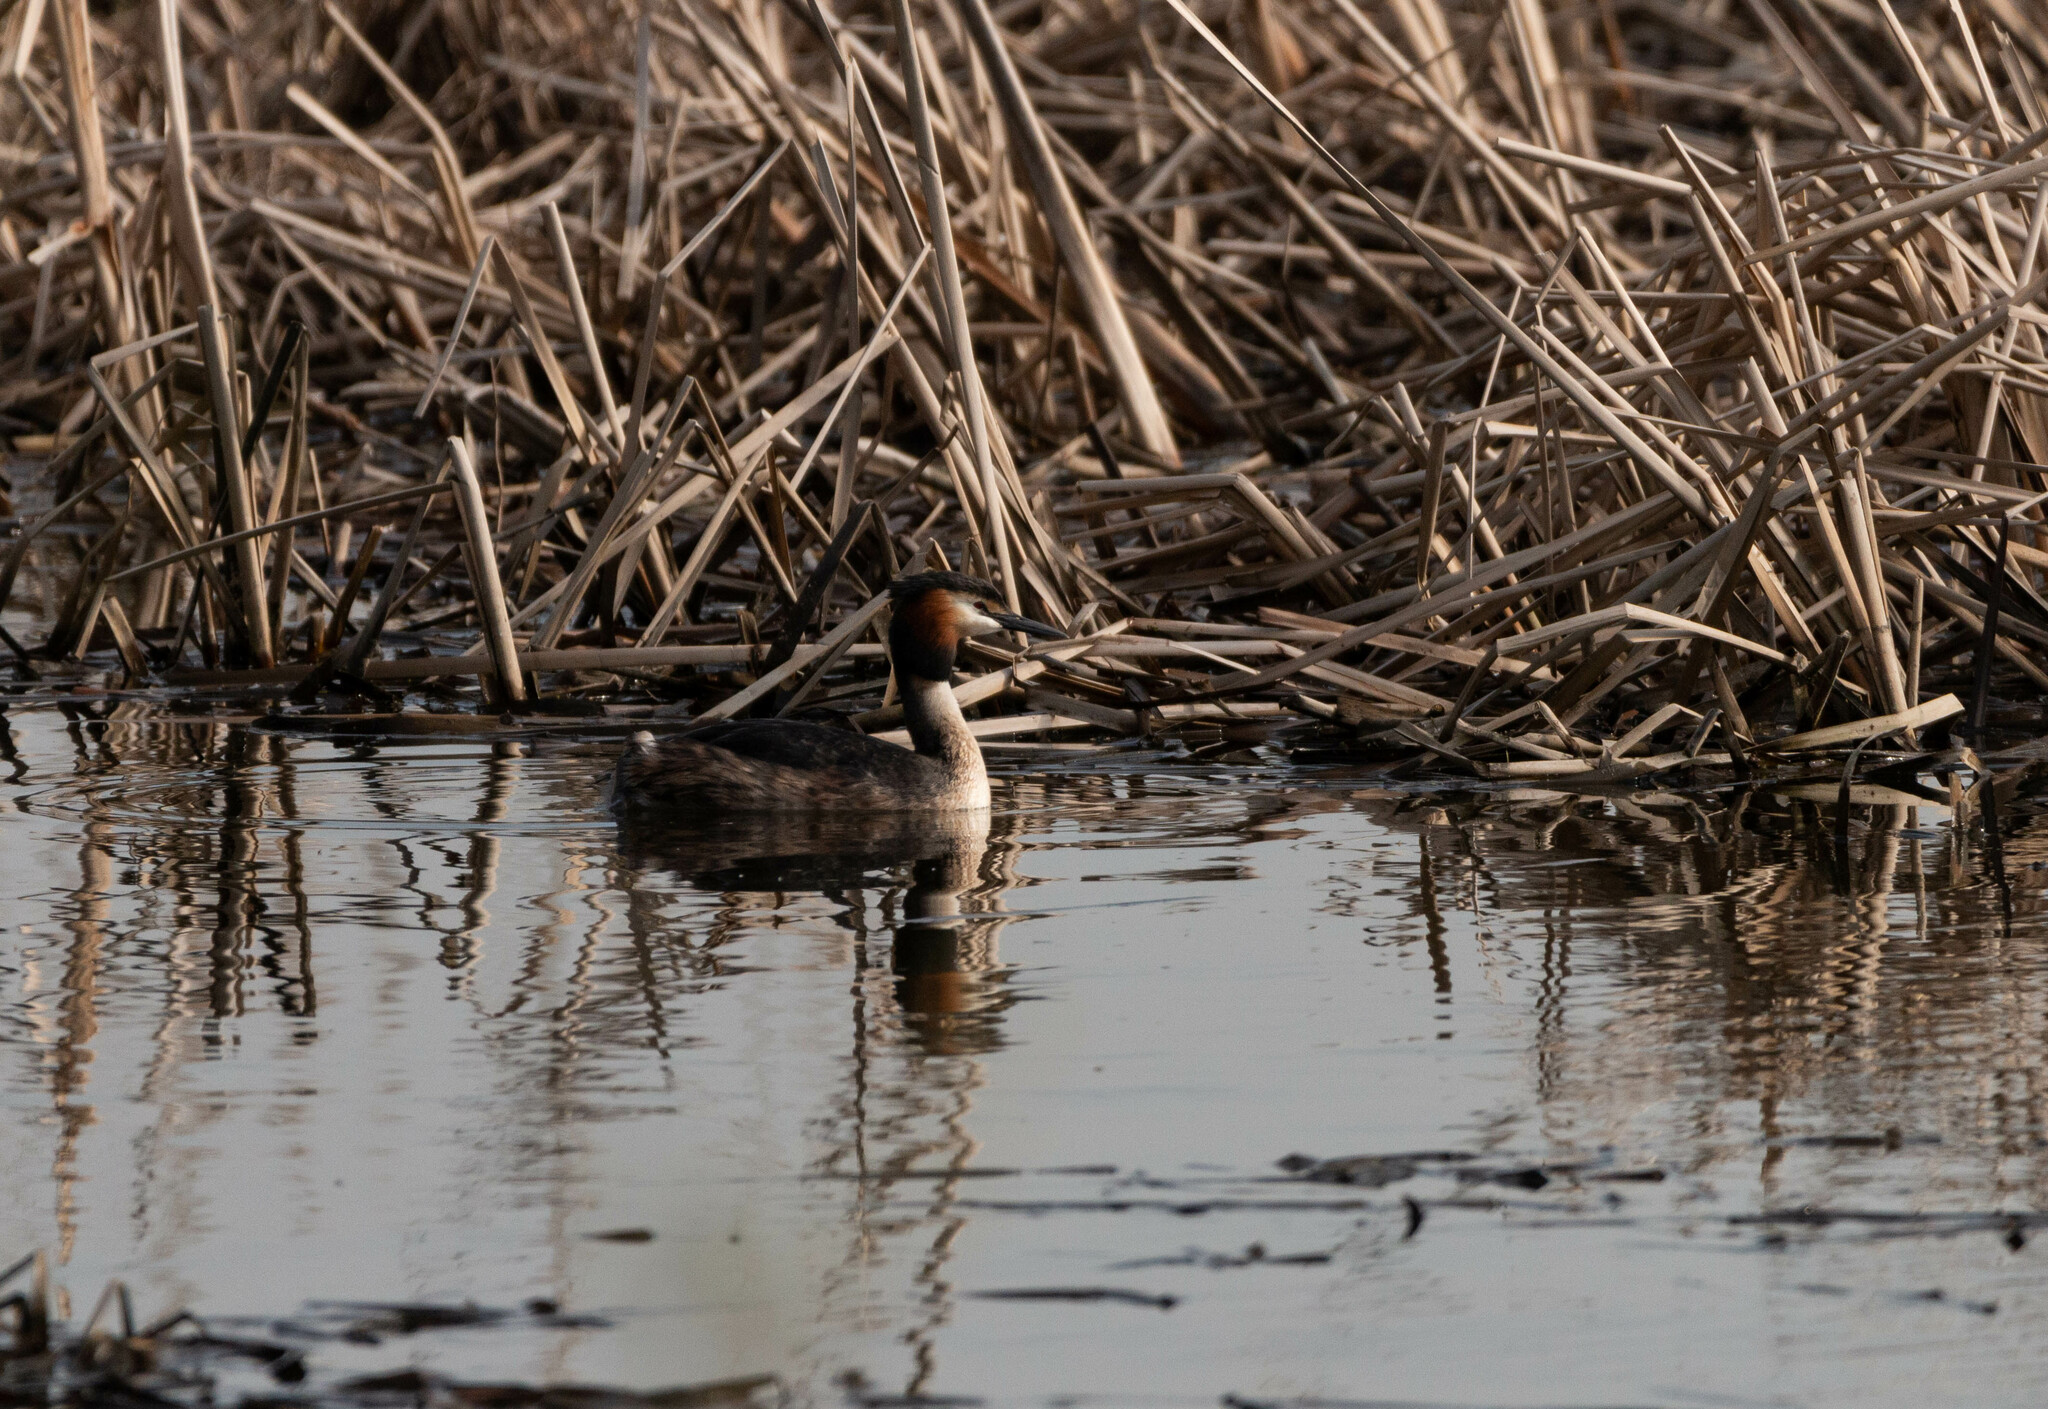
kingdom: Animalia
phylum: Chordata
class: Aves
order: Podicipediformes
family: Podicipedidae
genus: Podiceps
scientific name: Podiceps cristatus
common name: Great crested grebe
